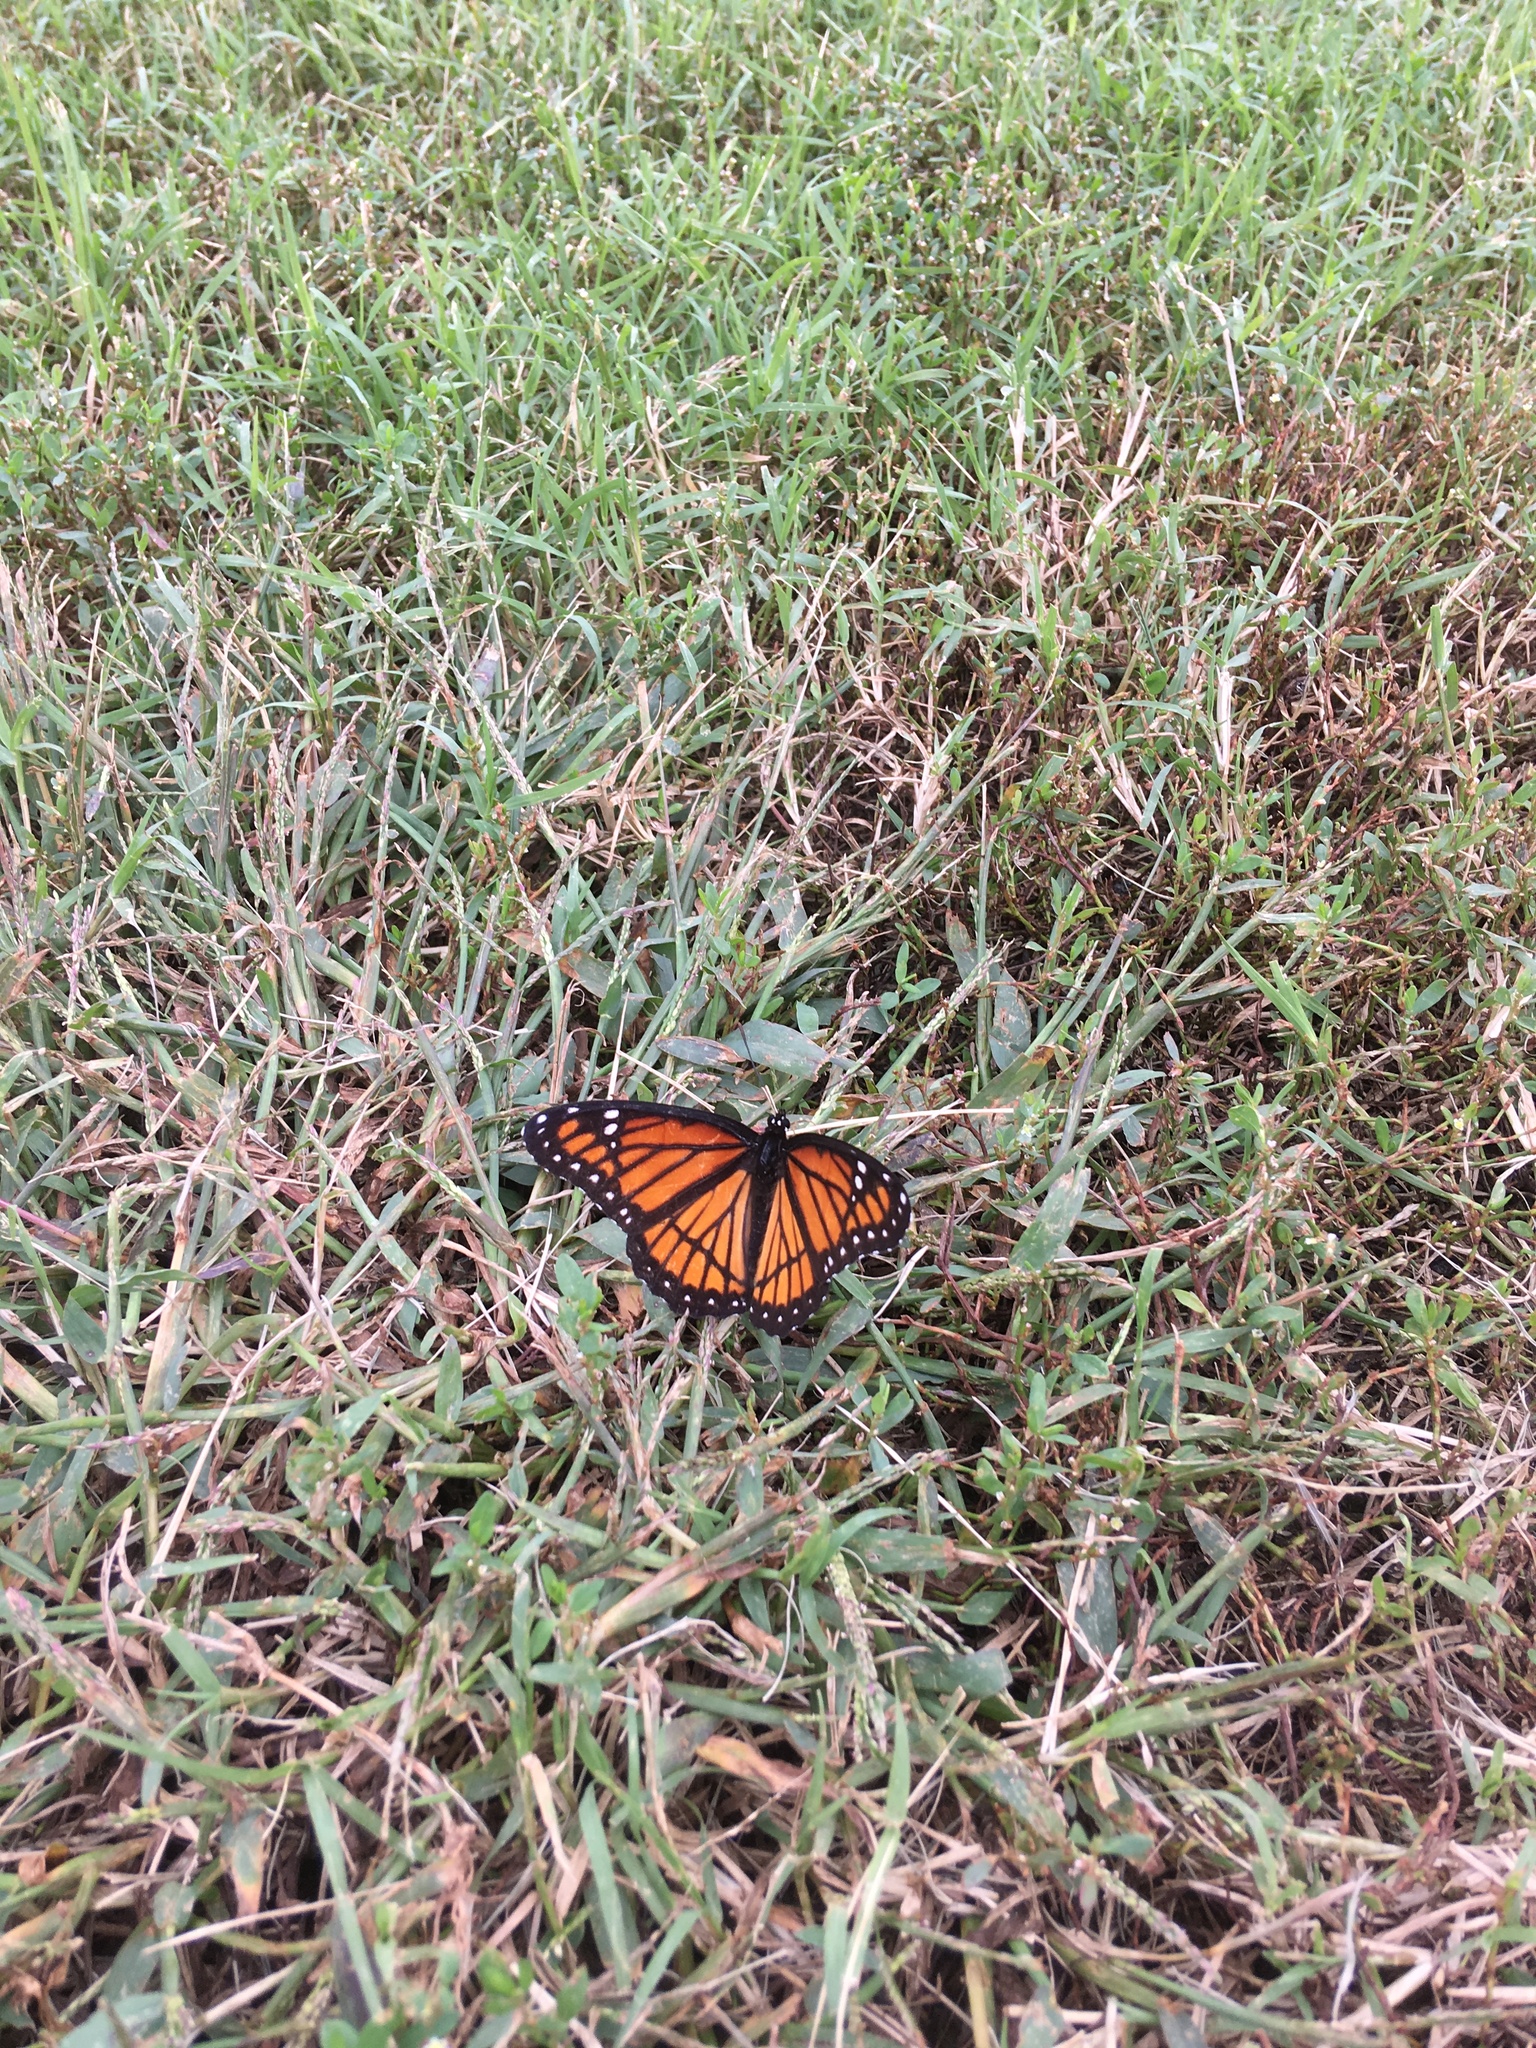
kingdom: Animalia
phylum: Arthropoda
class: Insecta
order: Lepidoptera
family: Nymphalidae
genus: Limenitis
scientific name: Limenitis archippus
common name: Viceroy
